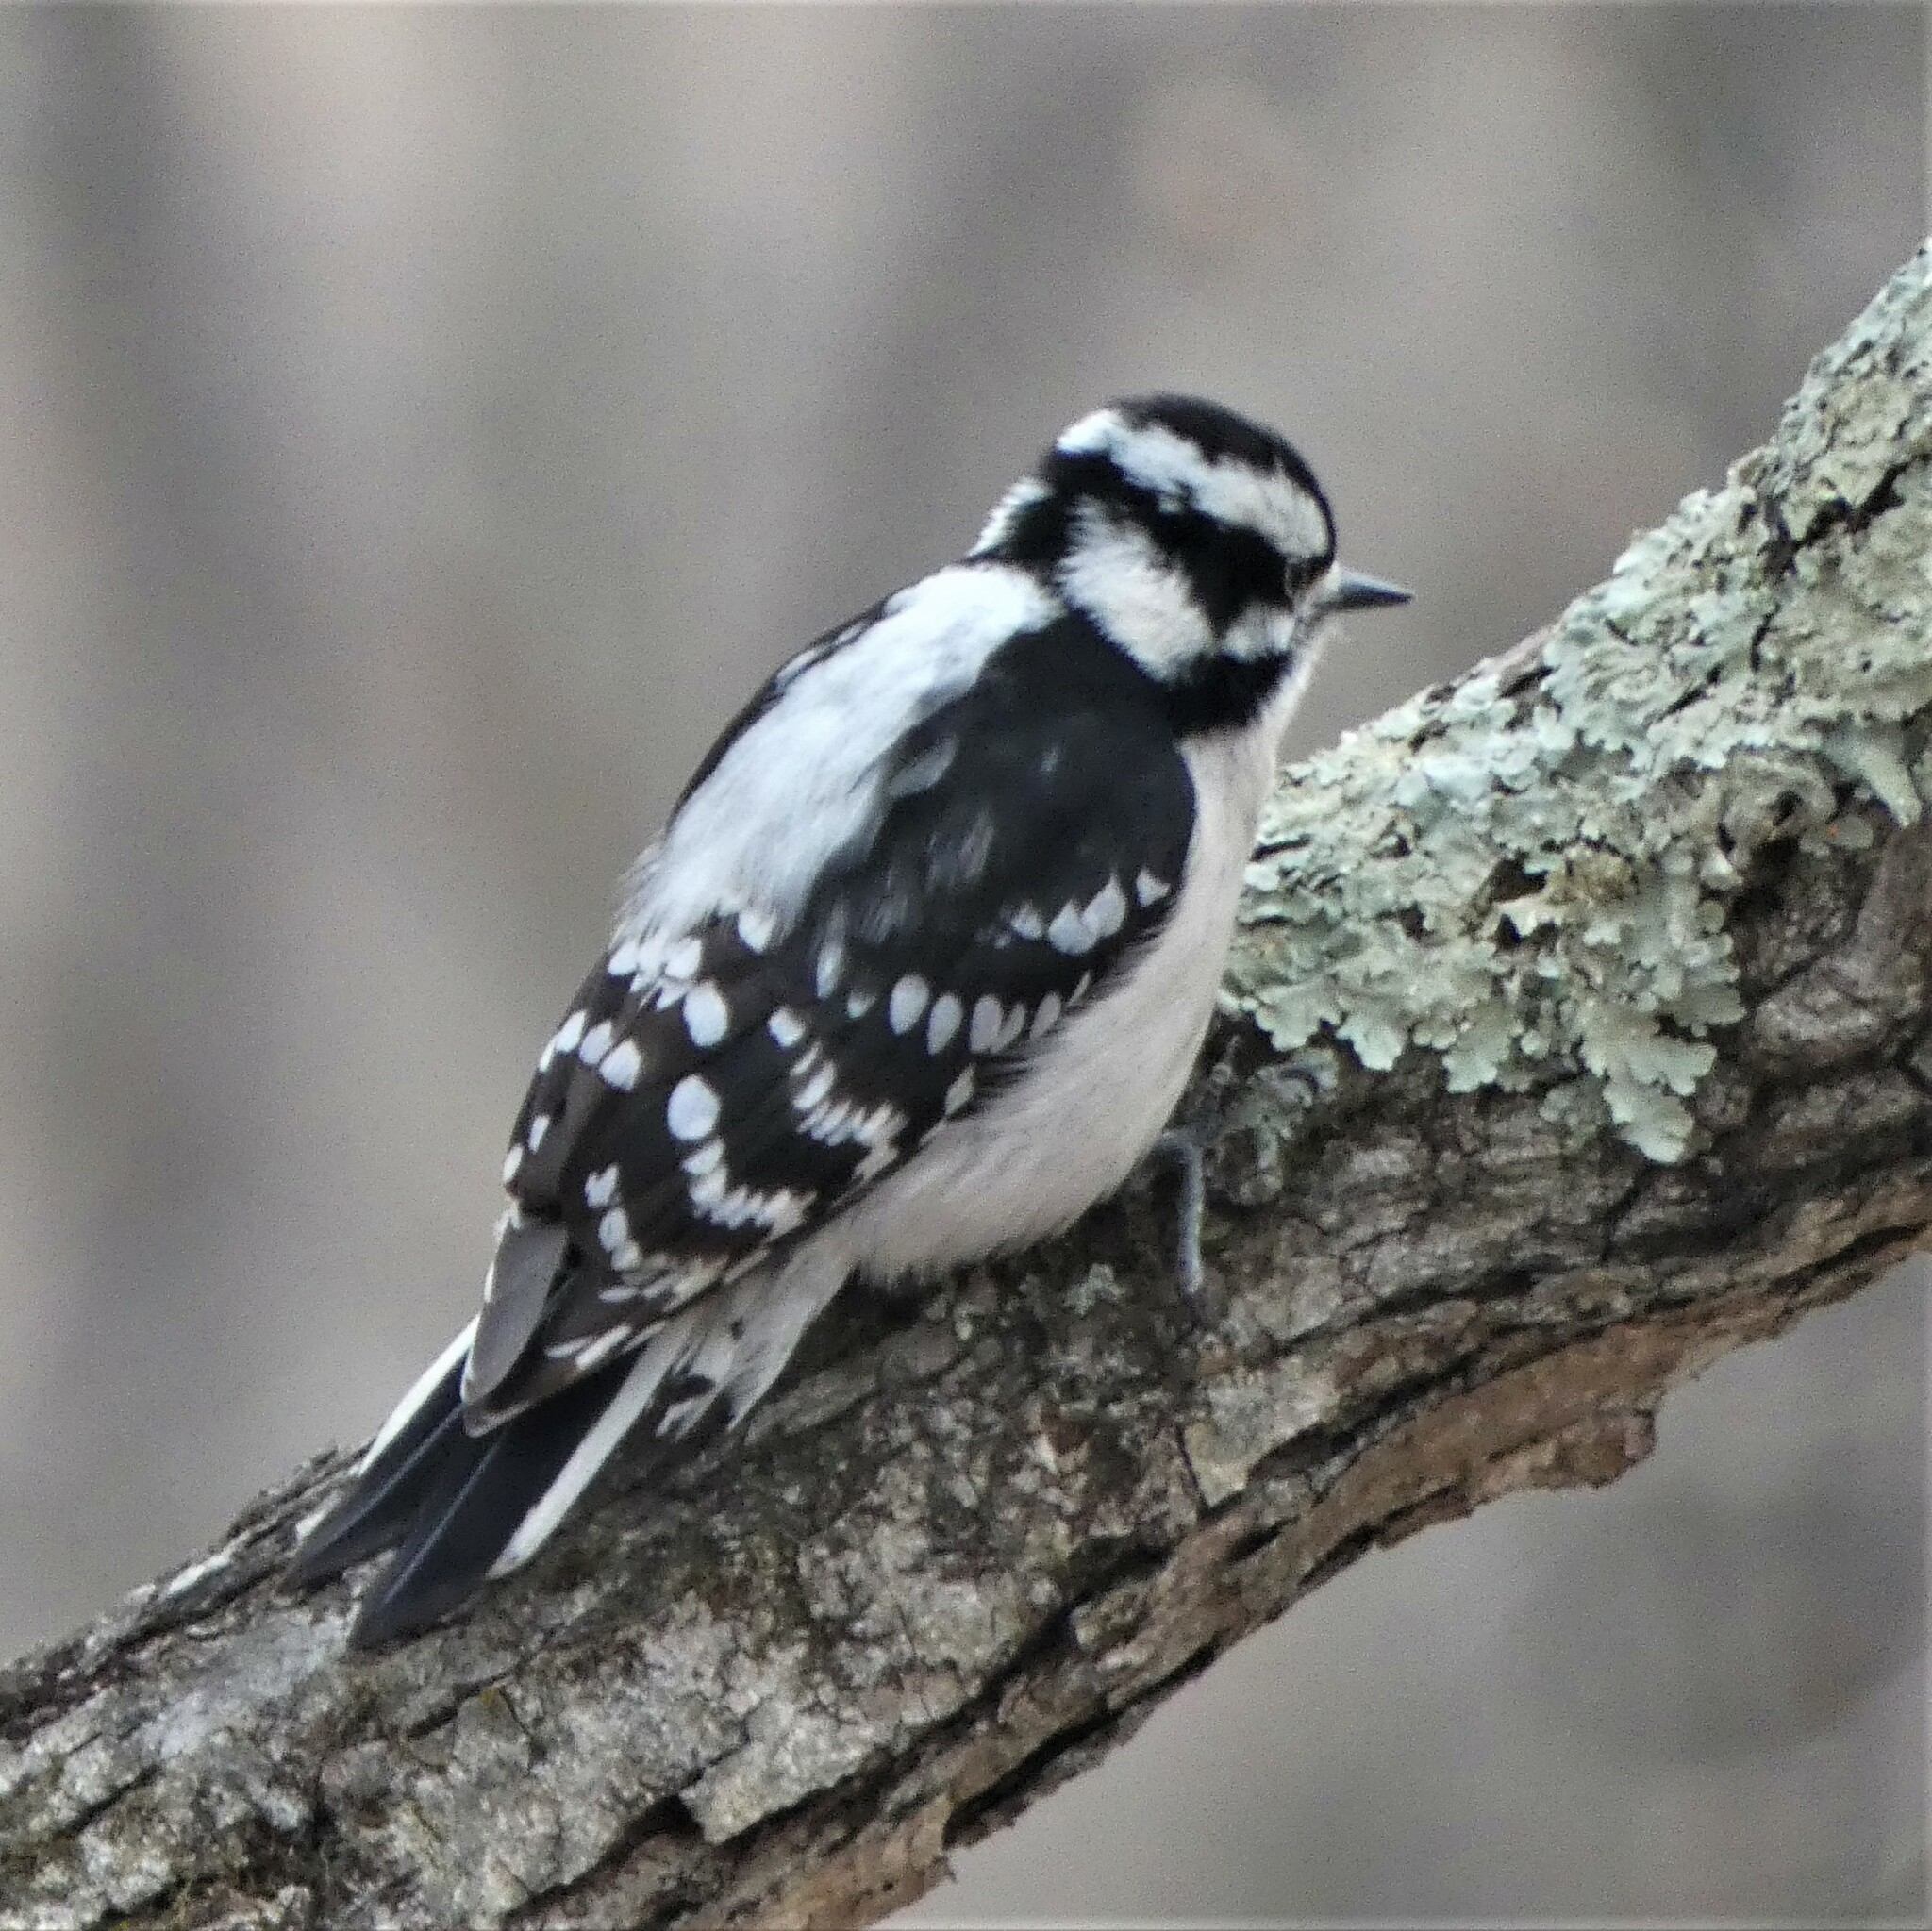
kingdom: Animalia
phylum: Chordata
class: Aves
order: Piciformes
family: Picidae
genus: Dryobates
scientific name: Dryobates pubescens
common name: Downy woodpecker
